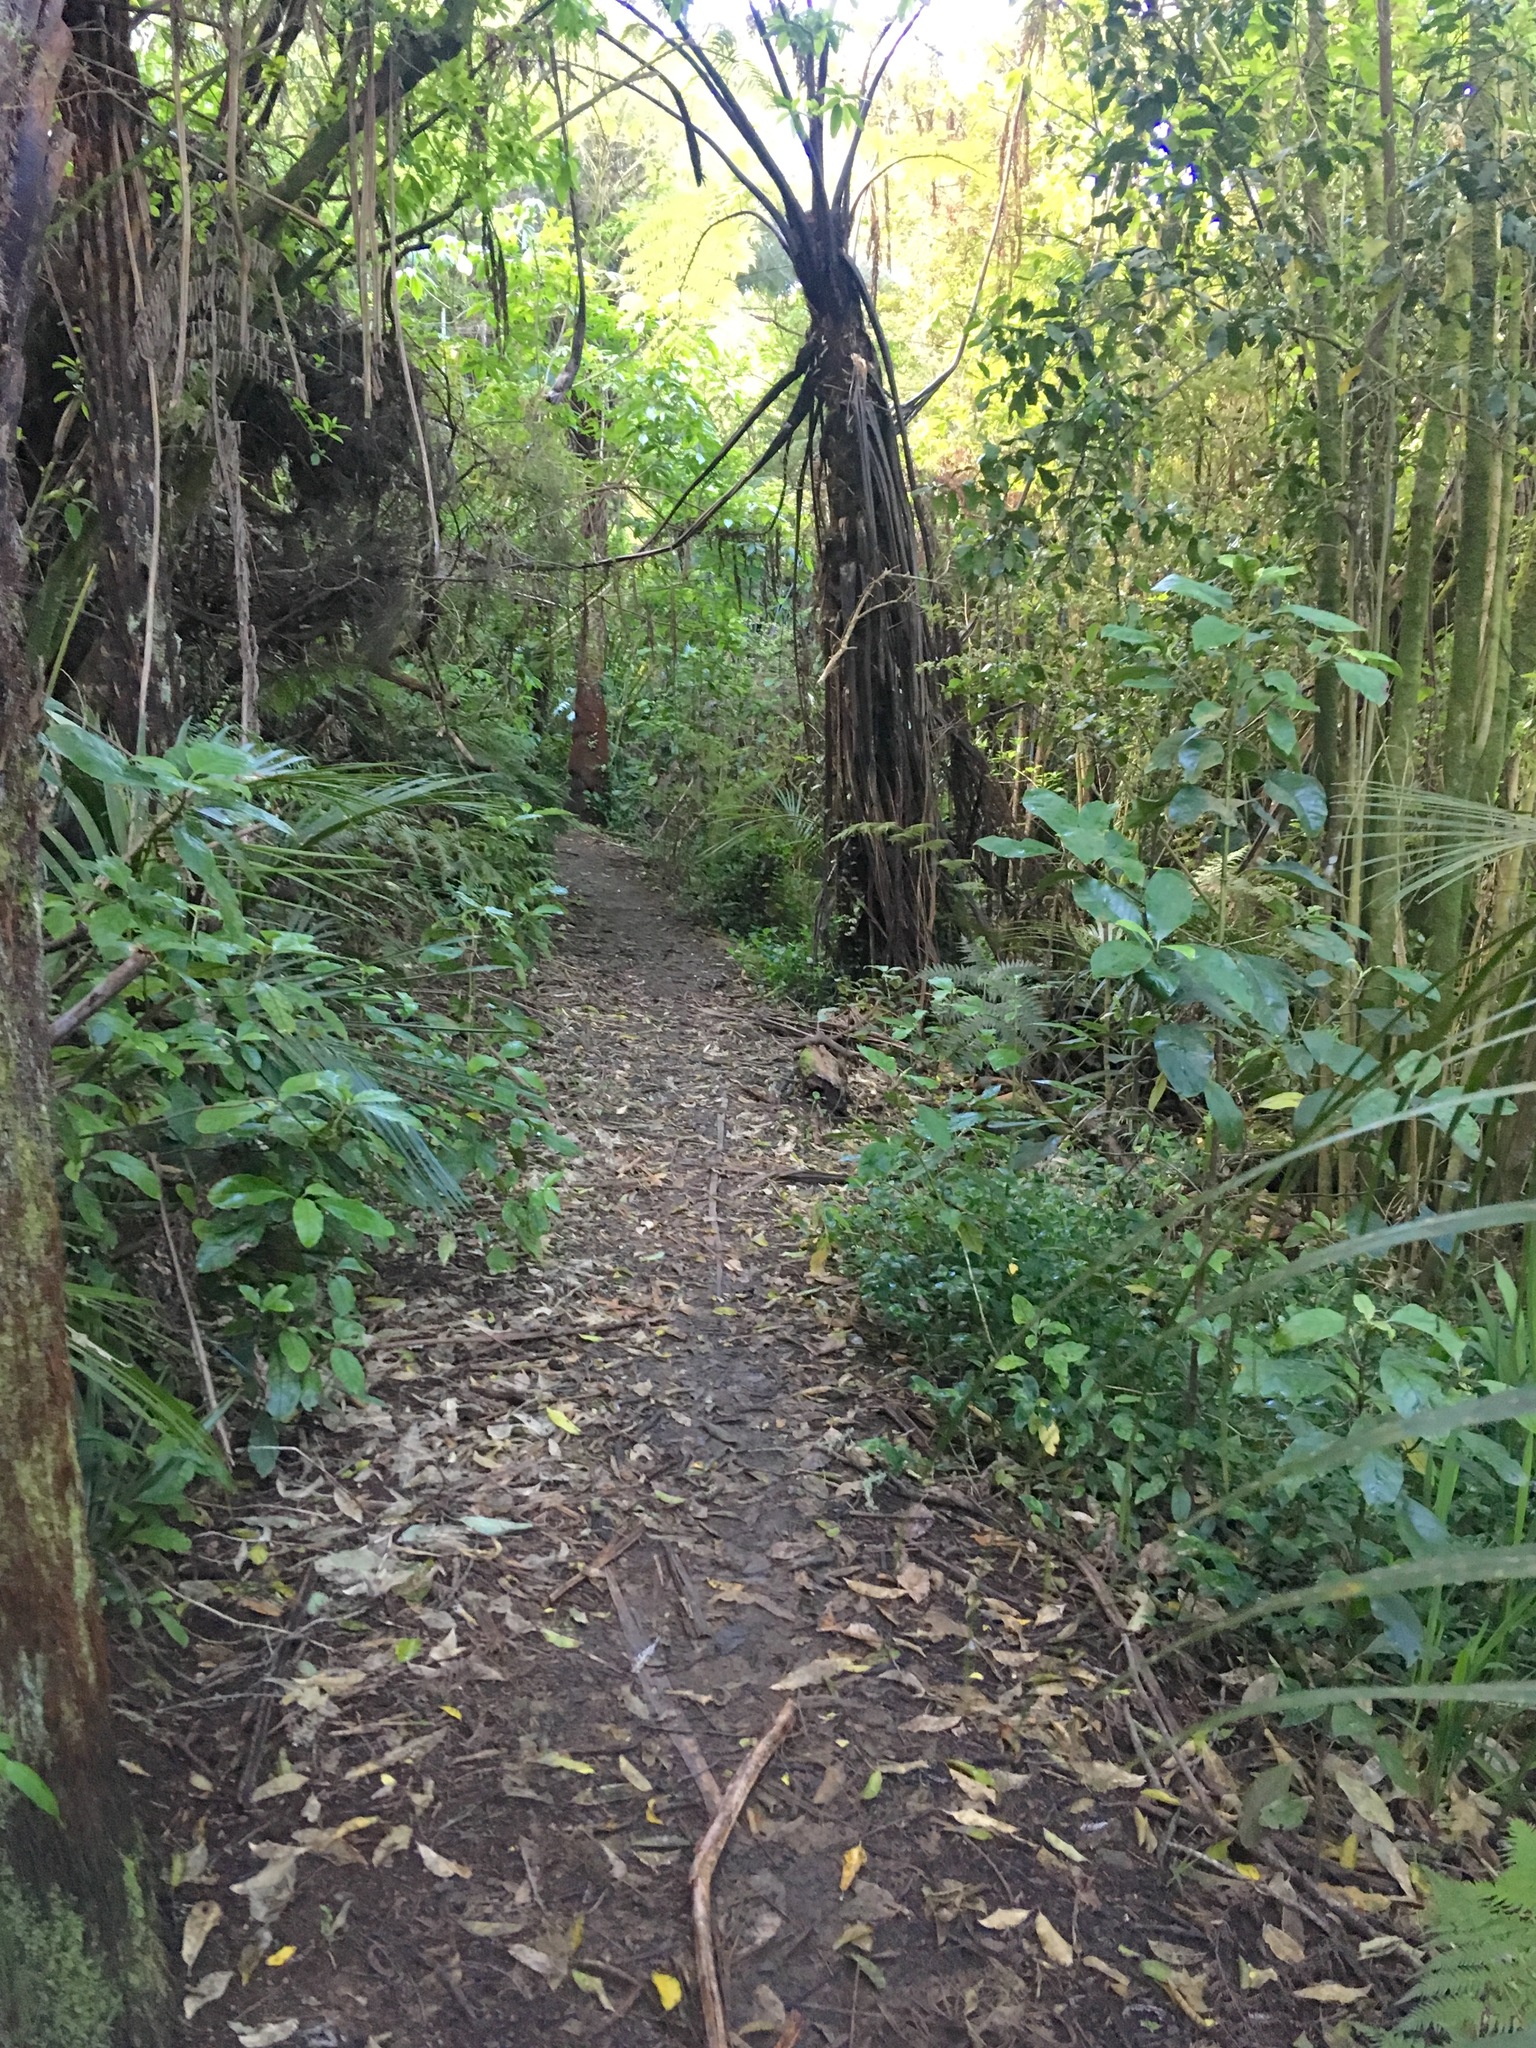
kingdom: Plantae
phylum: Tracheophyta
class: Magnoliopsida
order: Gentianales
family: Rubiaceae
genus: Coprosma
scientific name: Coprosma autumnalis
